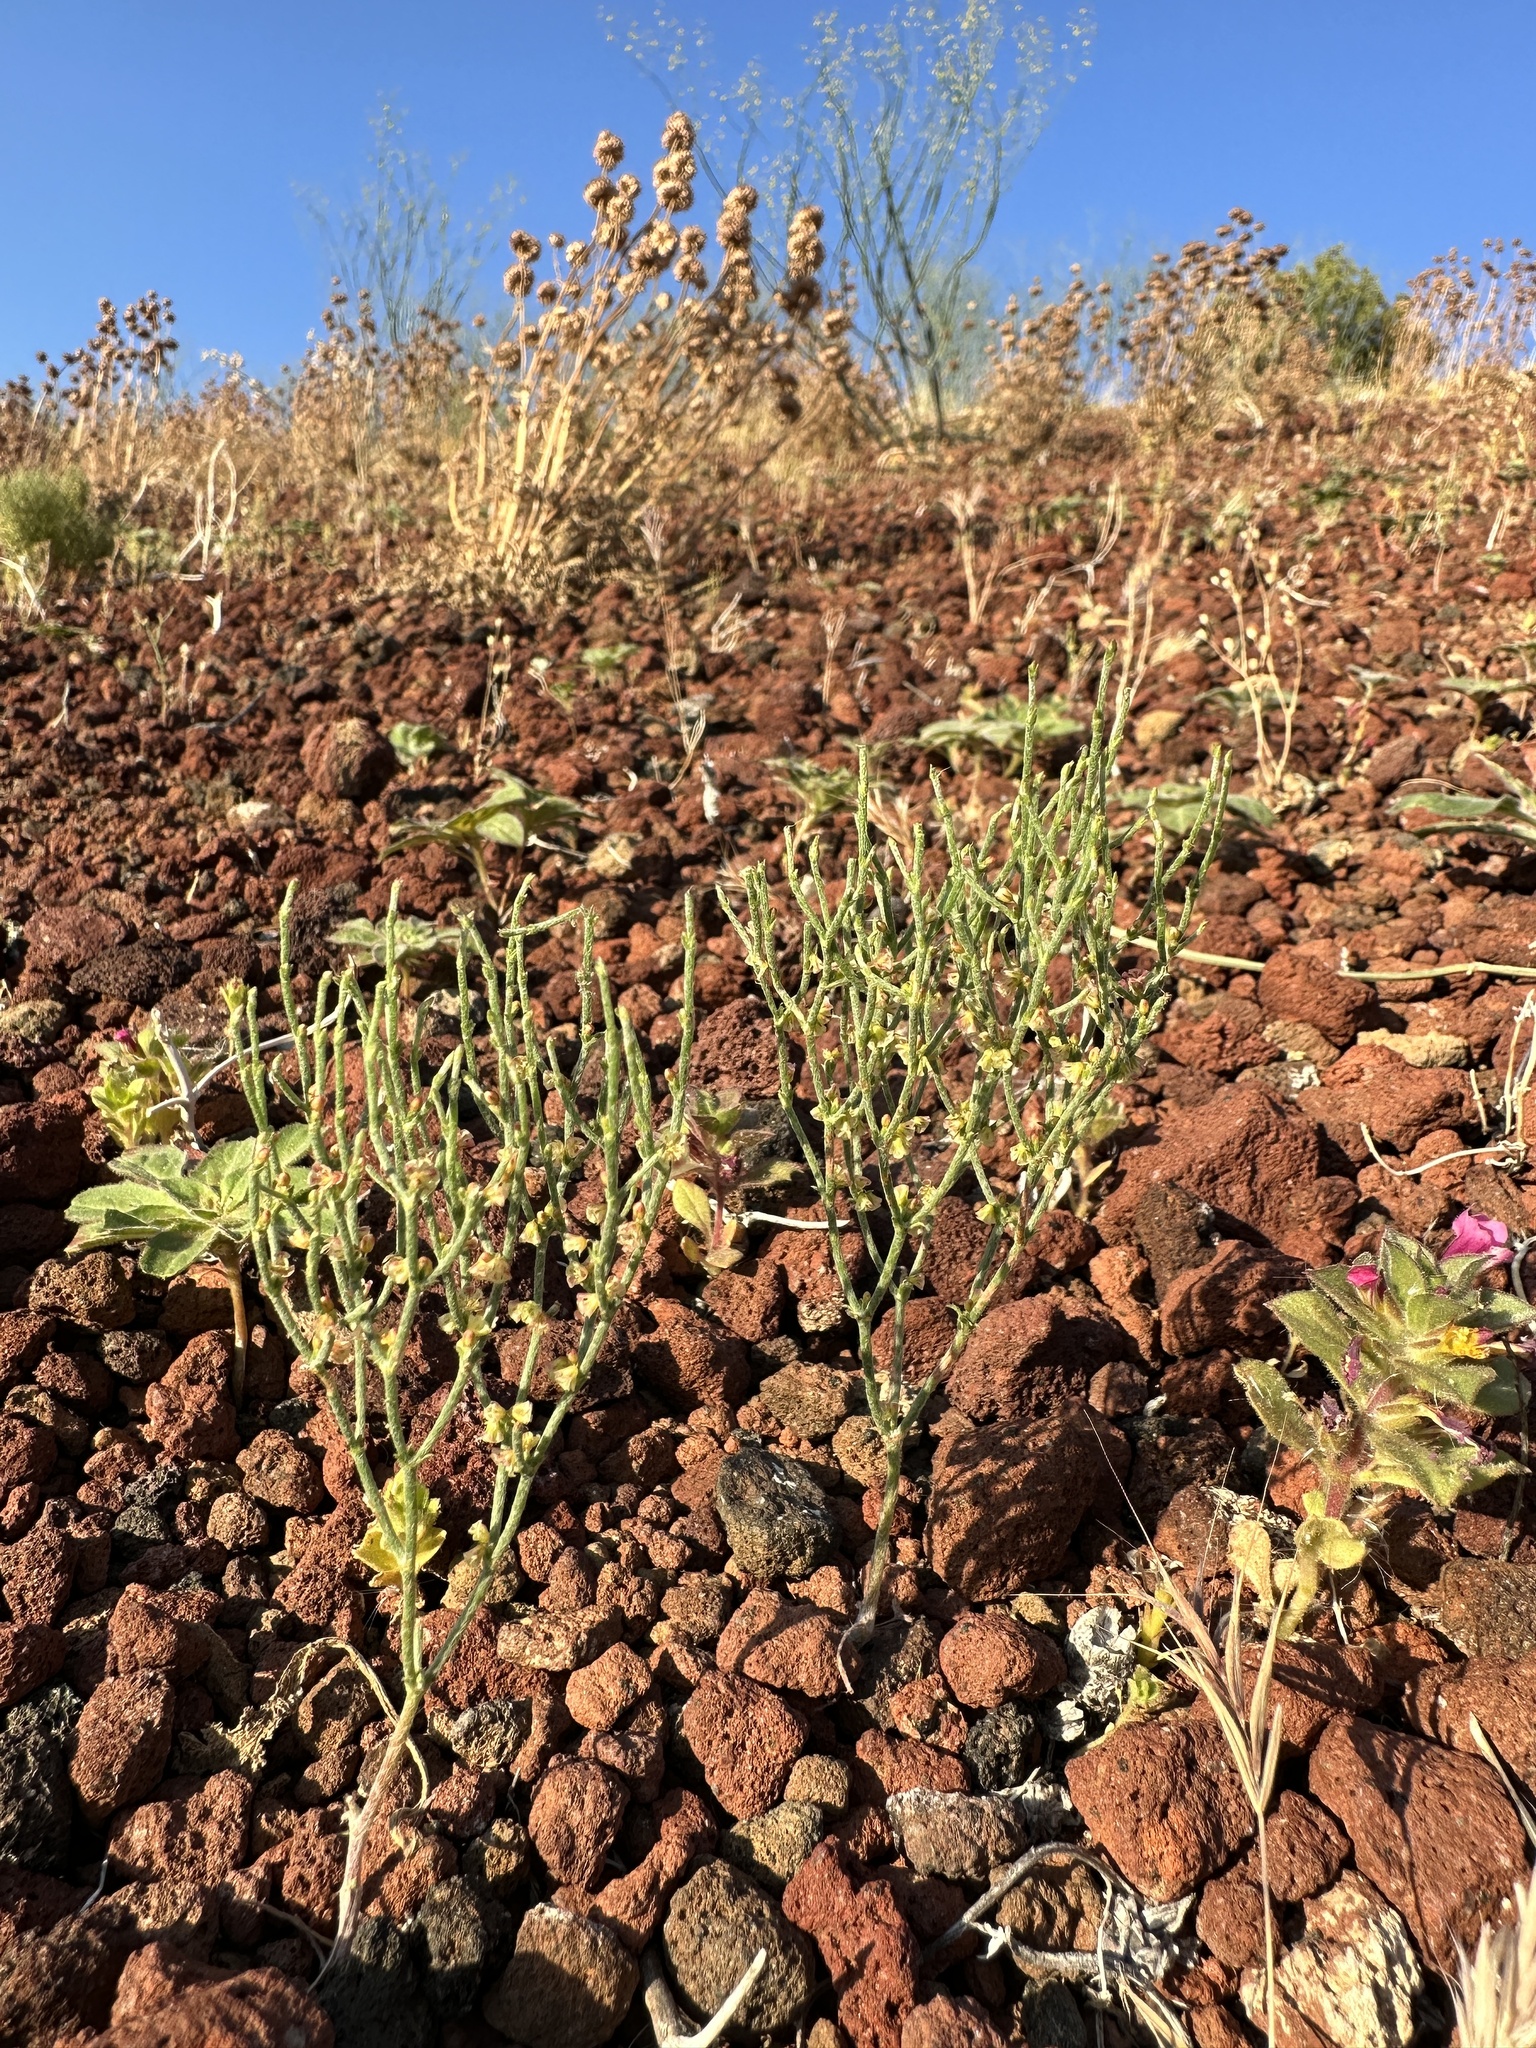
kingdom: Plantae
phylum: Tracheophyta
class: Magnoliopsida
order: Caryophyllales
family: Polygonaceae
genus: Eriogonum
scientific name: Eriogonum nidularium
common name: Bird's-nest wild buckwheat
